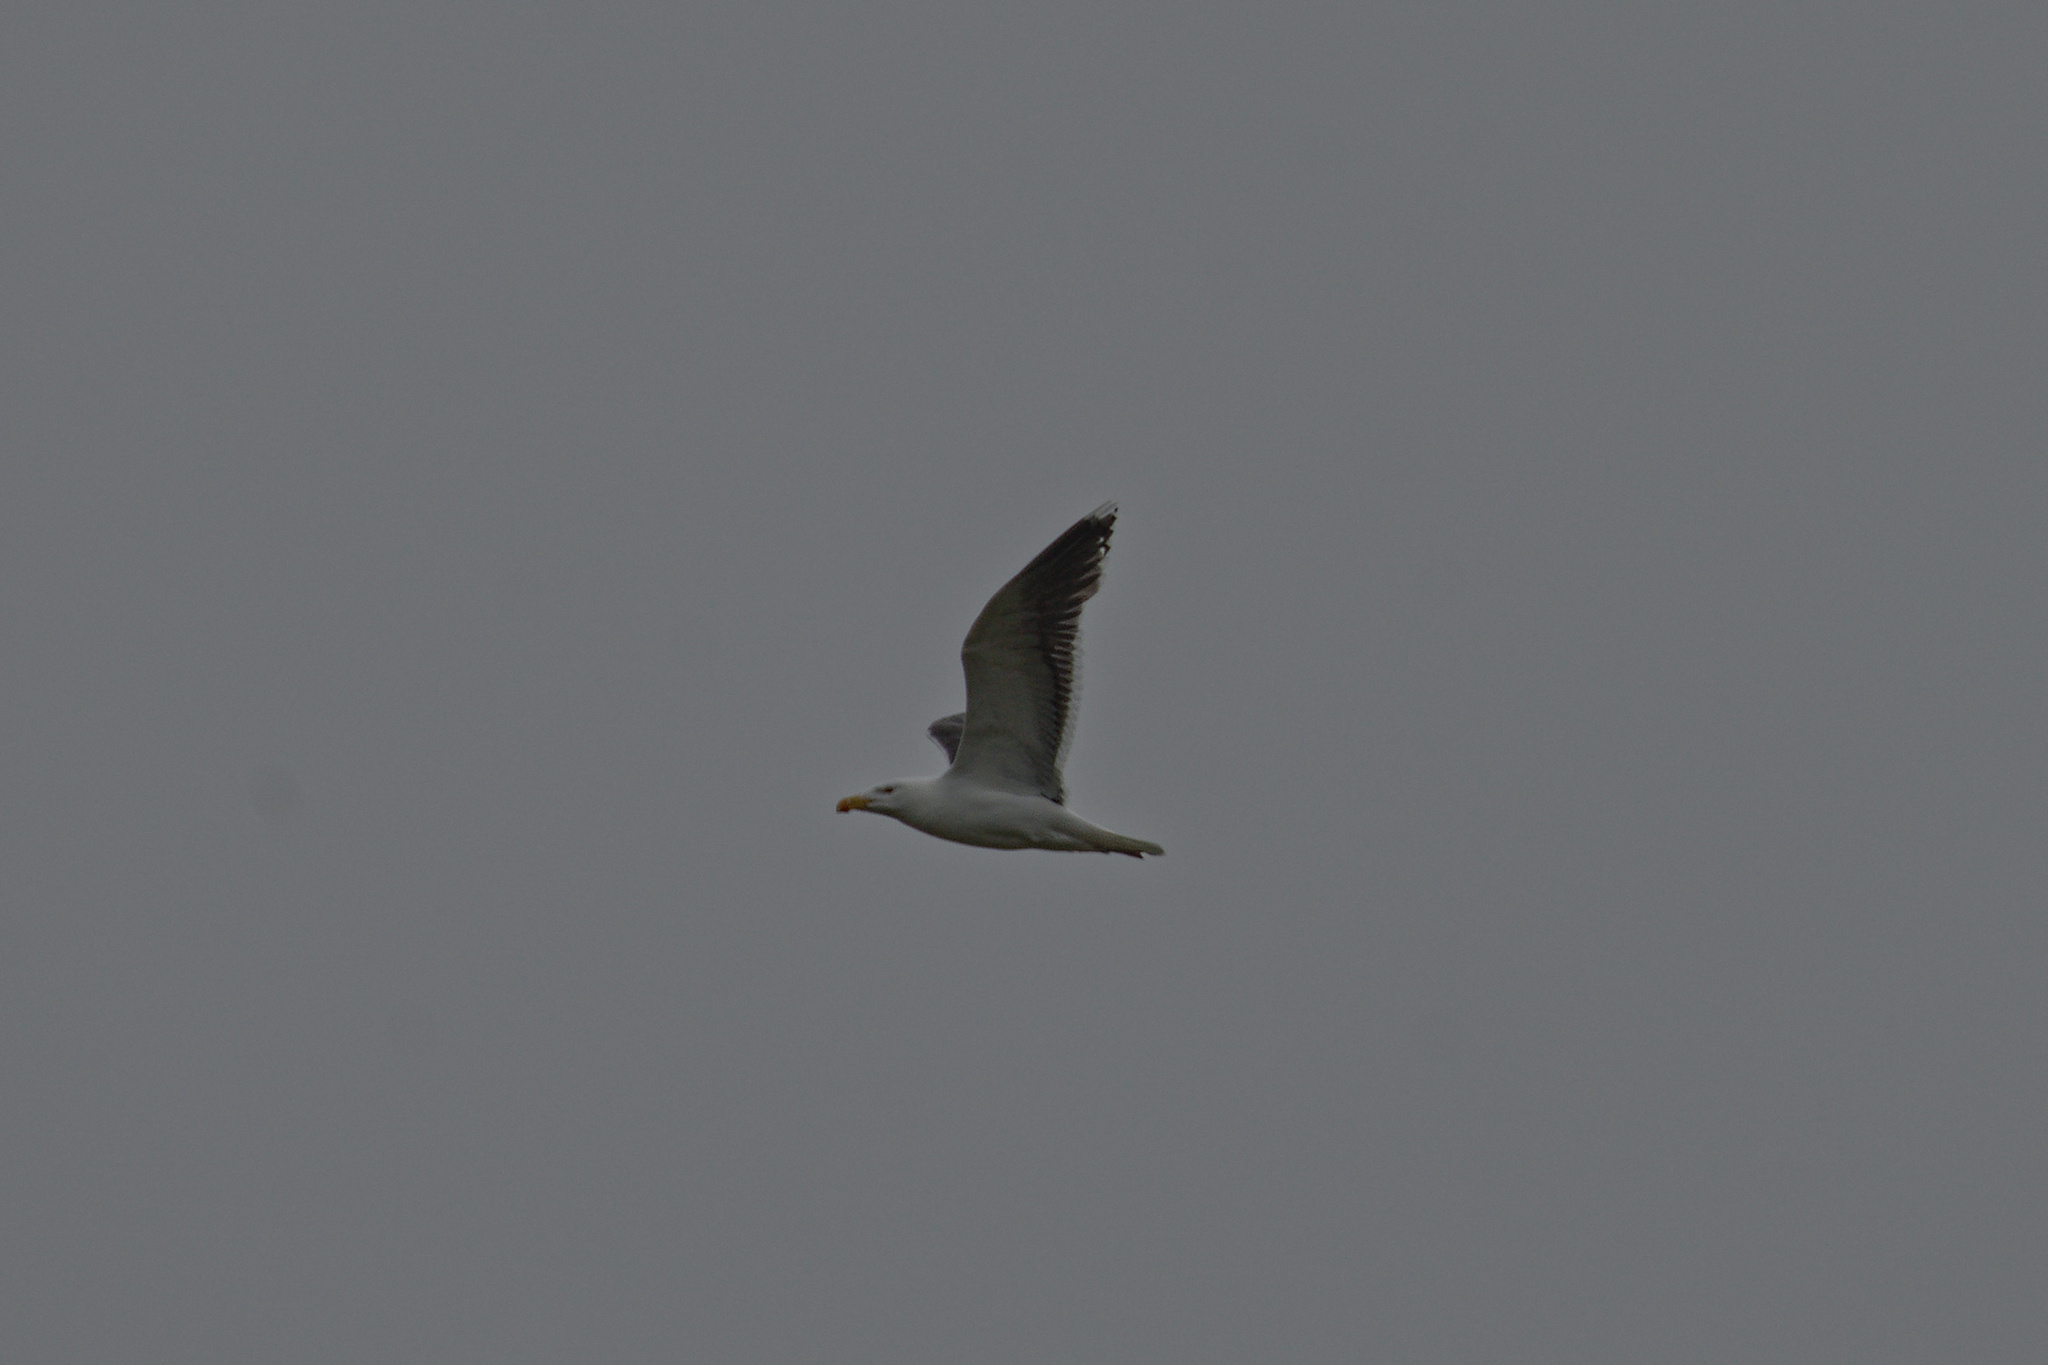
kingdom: Animalia
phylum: Chordata
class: Aves
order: Charadriiformes
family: Laridae
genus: Larus
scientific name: Larus marinus
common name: Great black-backed gull
